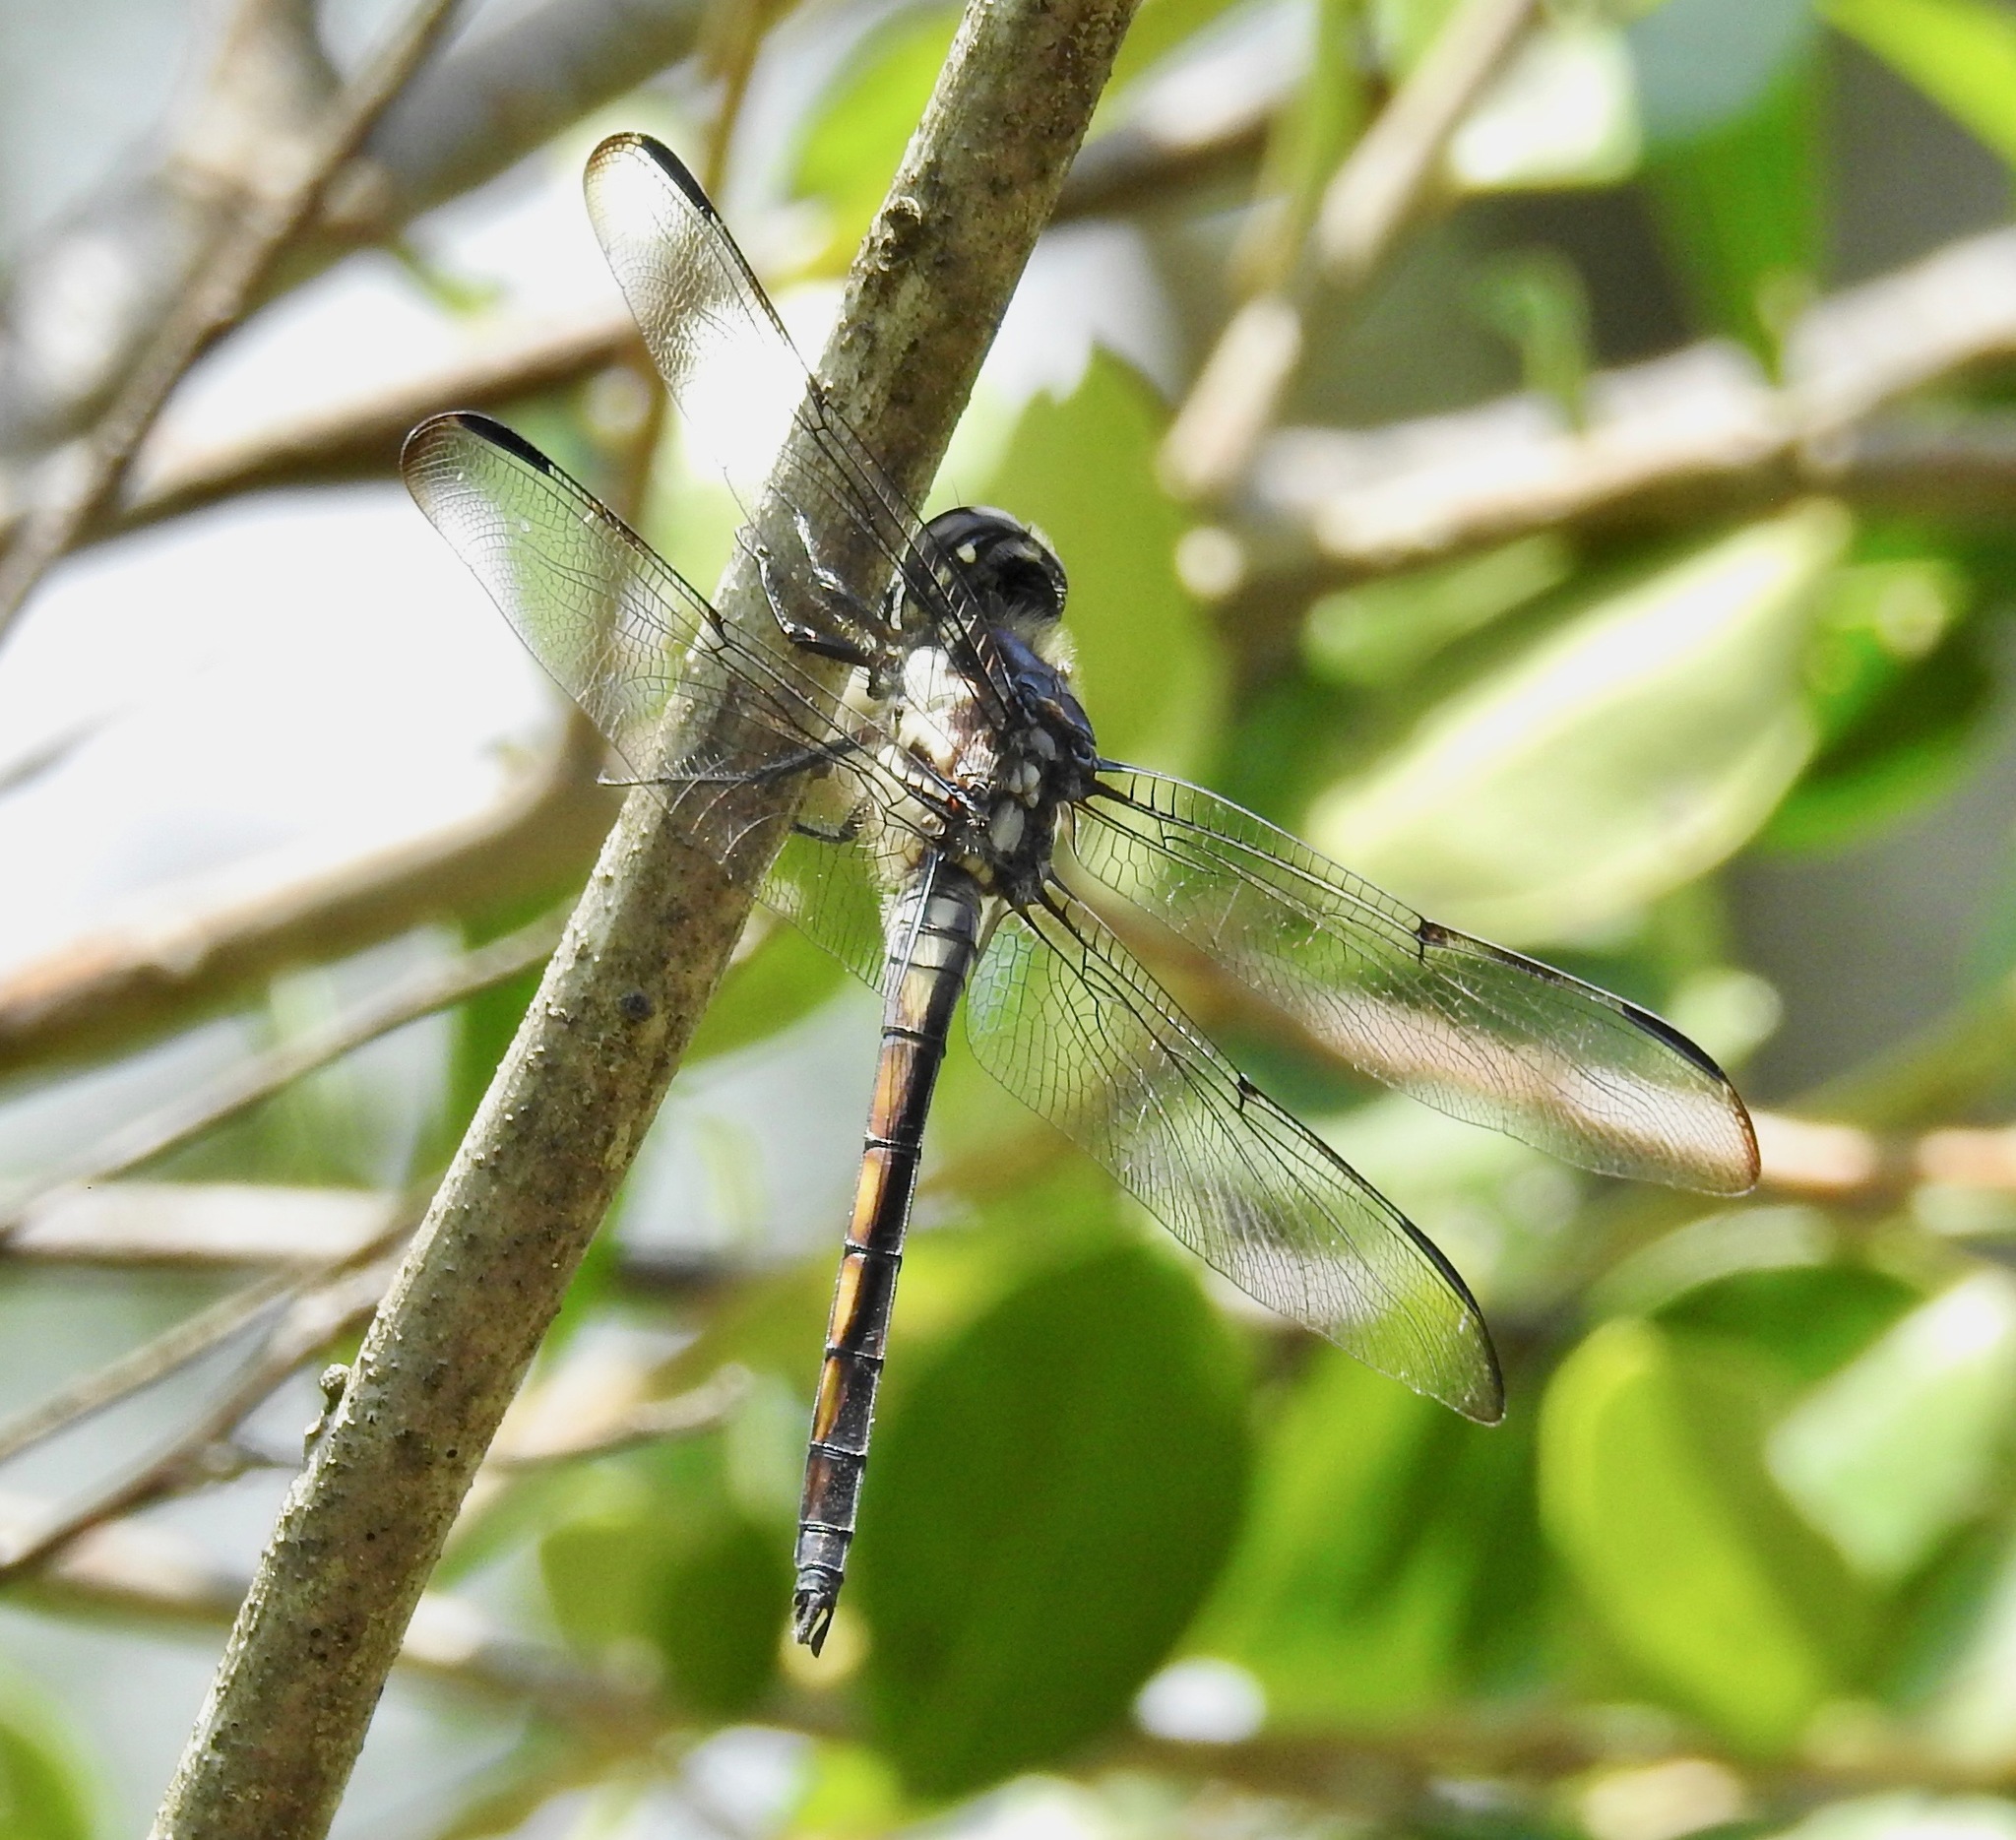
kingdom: Animalia
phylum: Arthropoda
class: Insecta
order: Odonata
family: Libellulidae
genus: Libellula
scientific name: Libellula axilena
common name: Bar-winged skimmer
